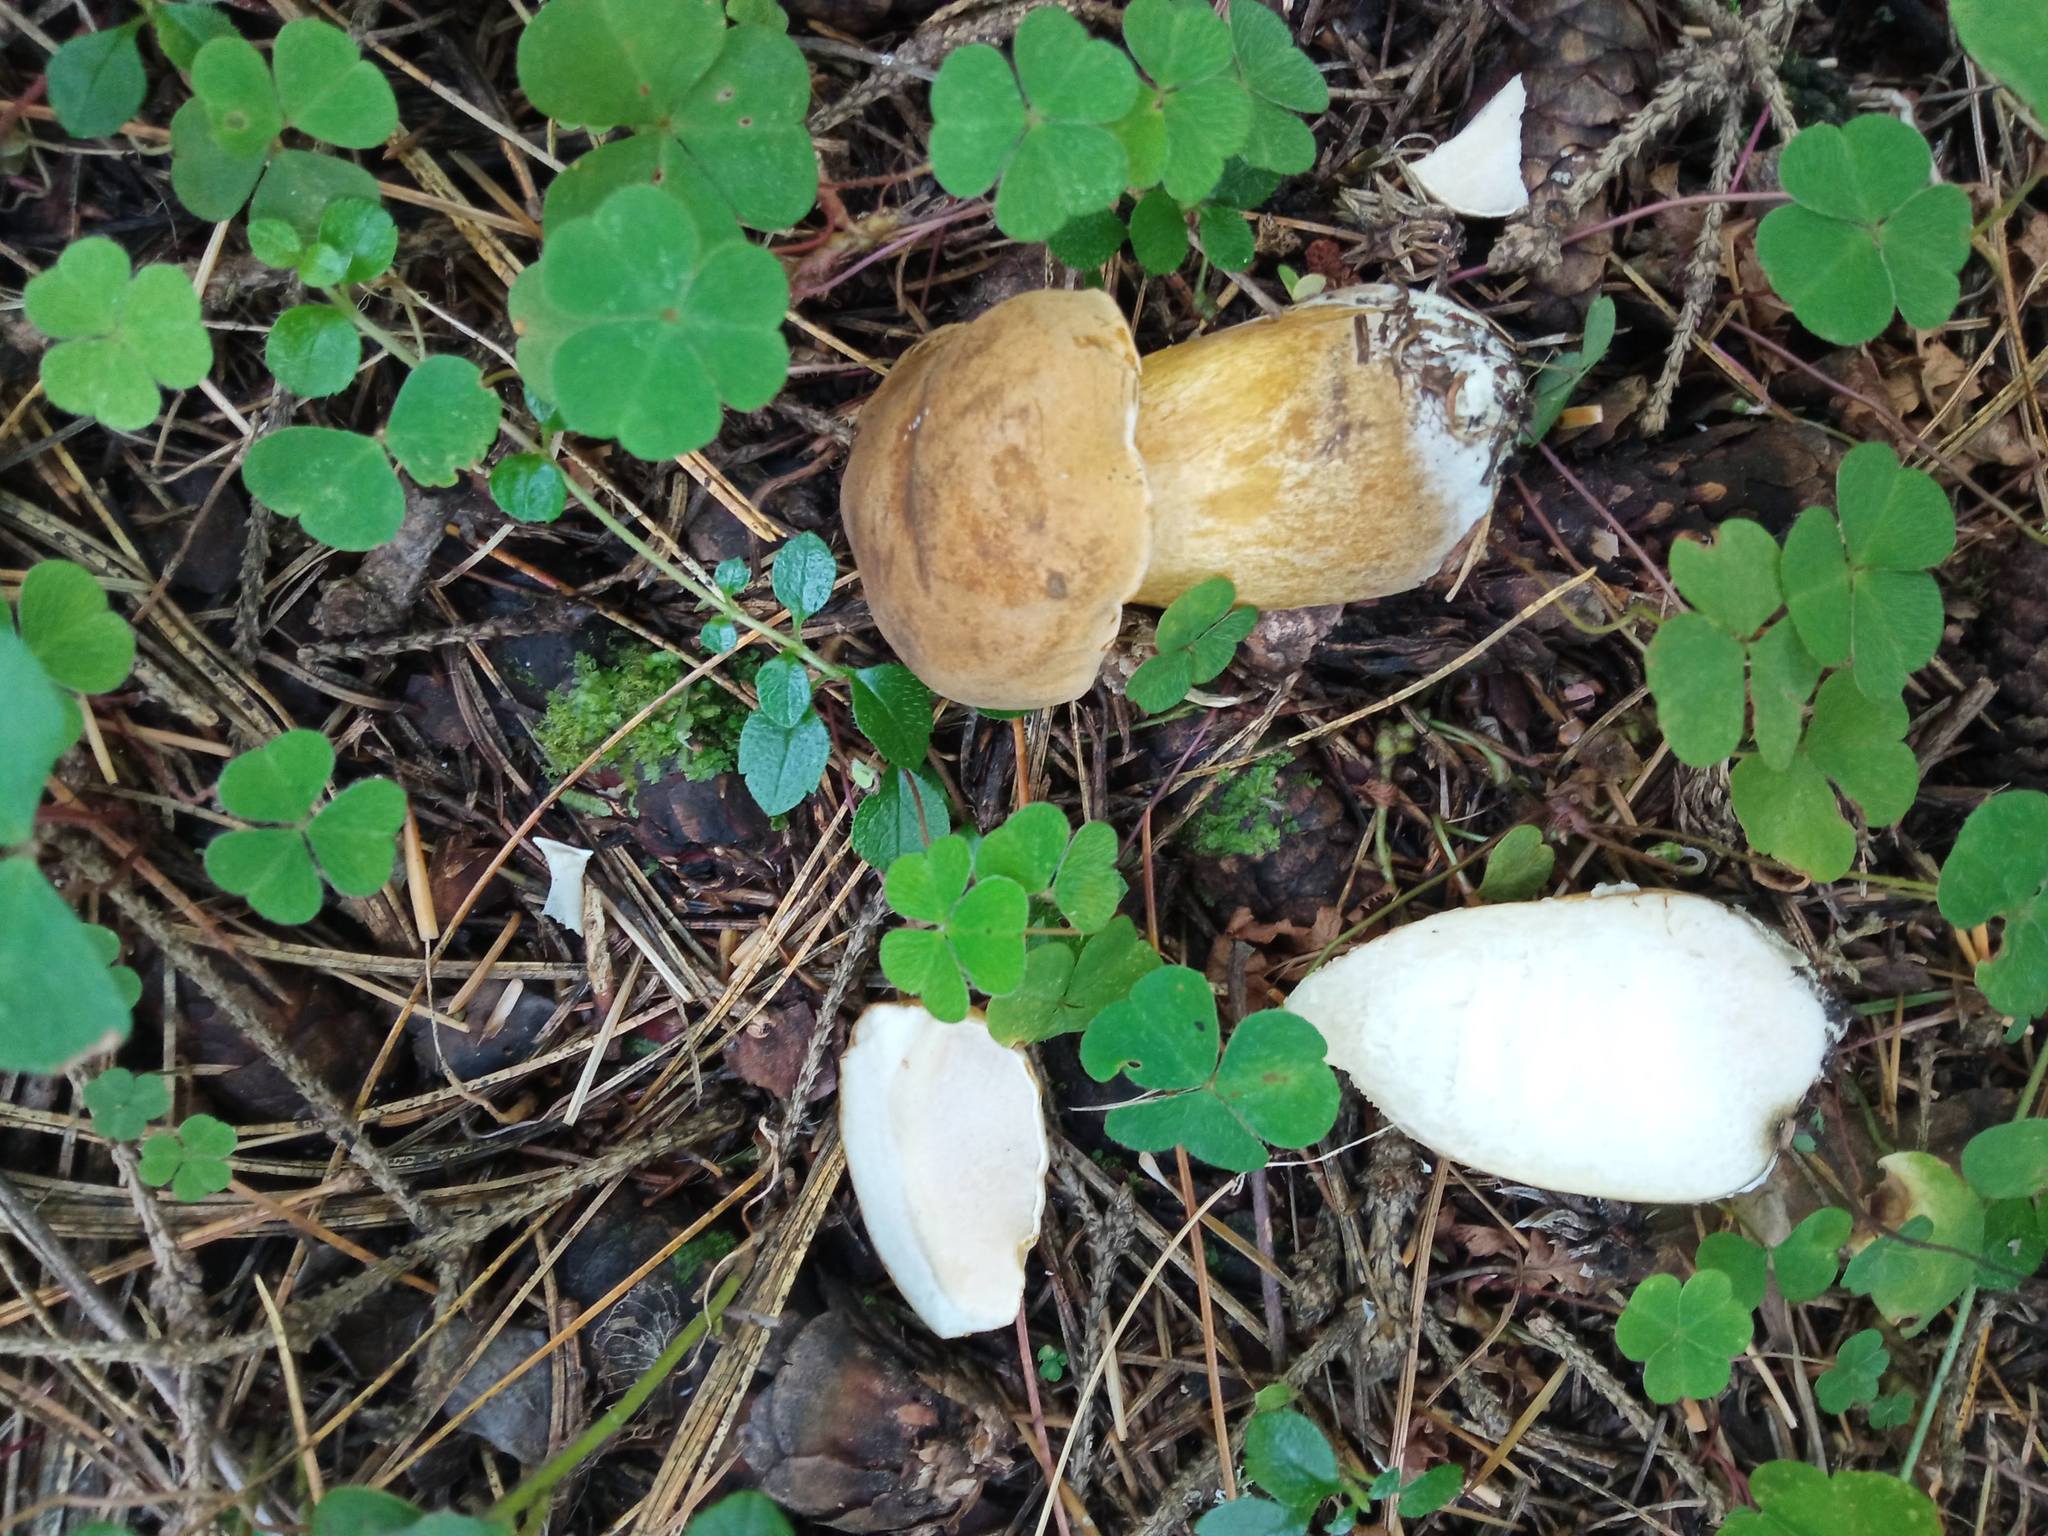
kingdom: Fungi
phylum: Basidiomycota
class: Agaricomycetes
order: Boletales
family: Boletaceae
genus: Tylopilus
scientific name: Tylopilus felleus
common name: Bitter bolete
